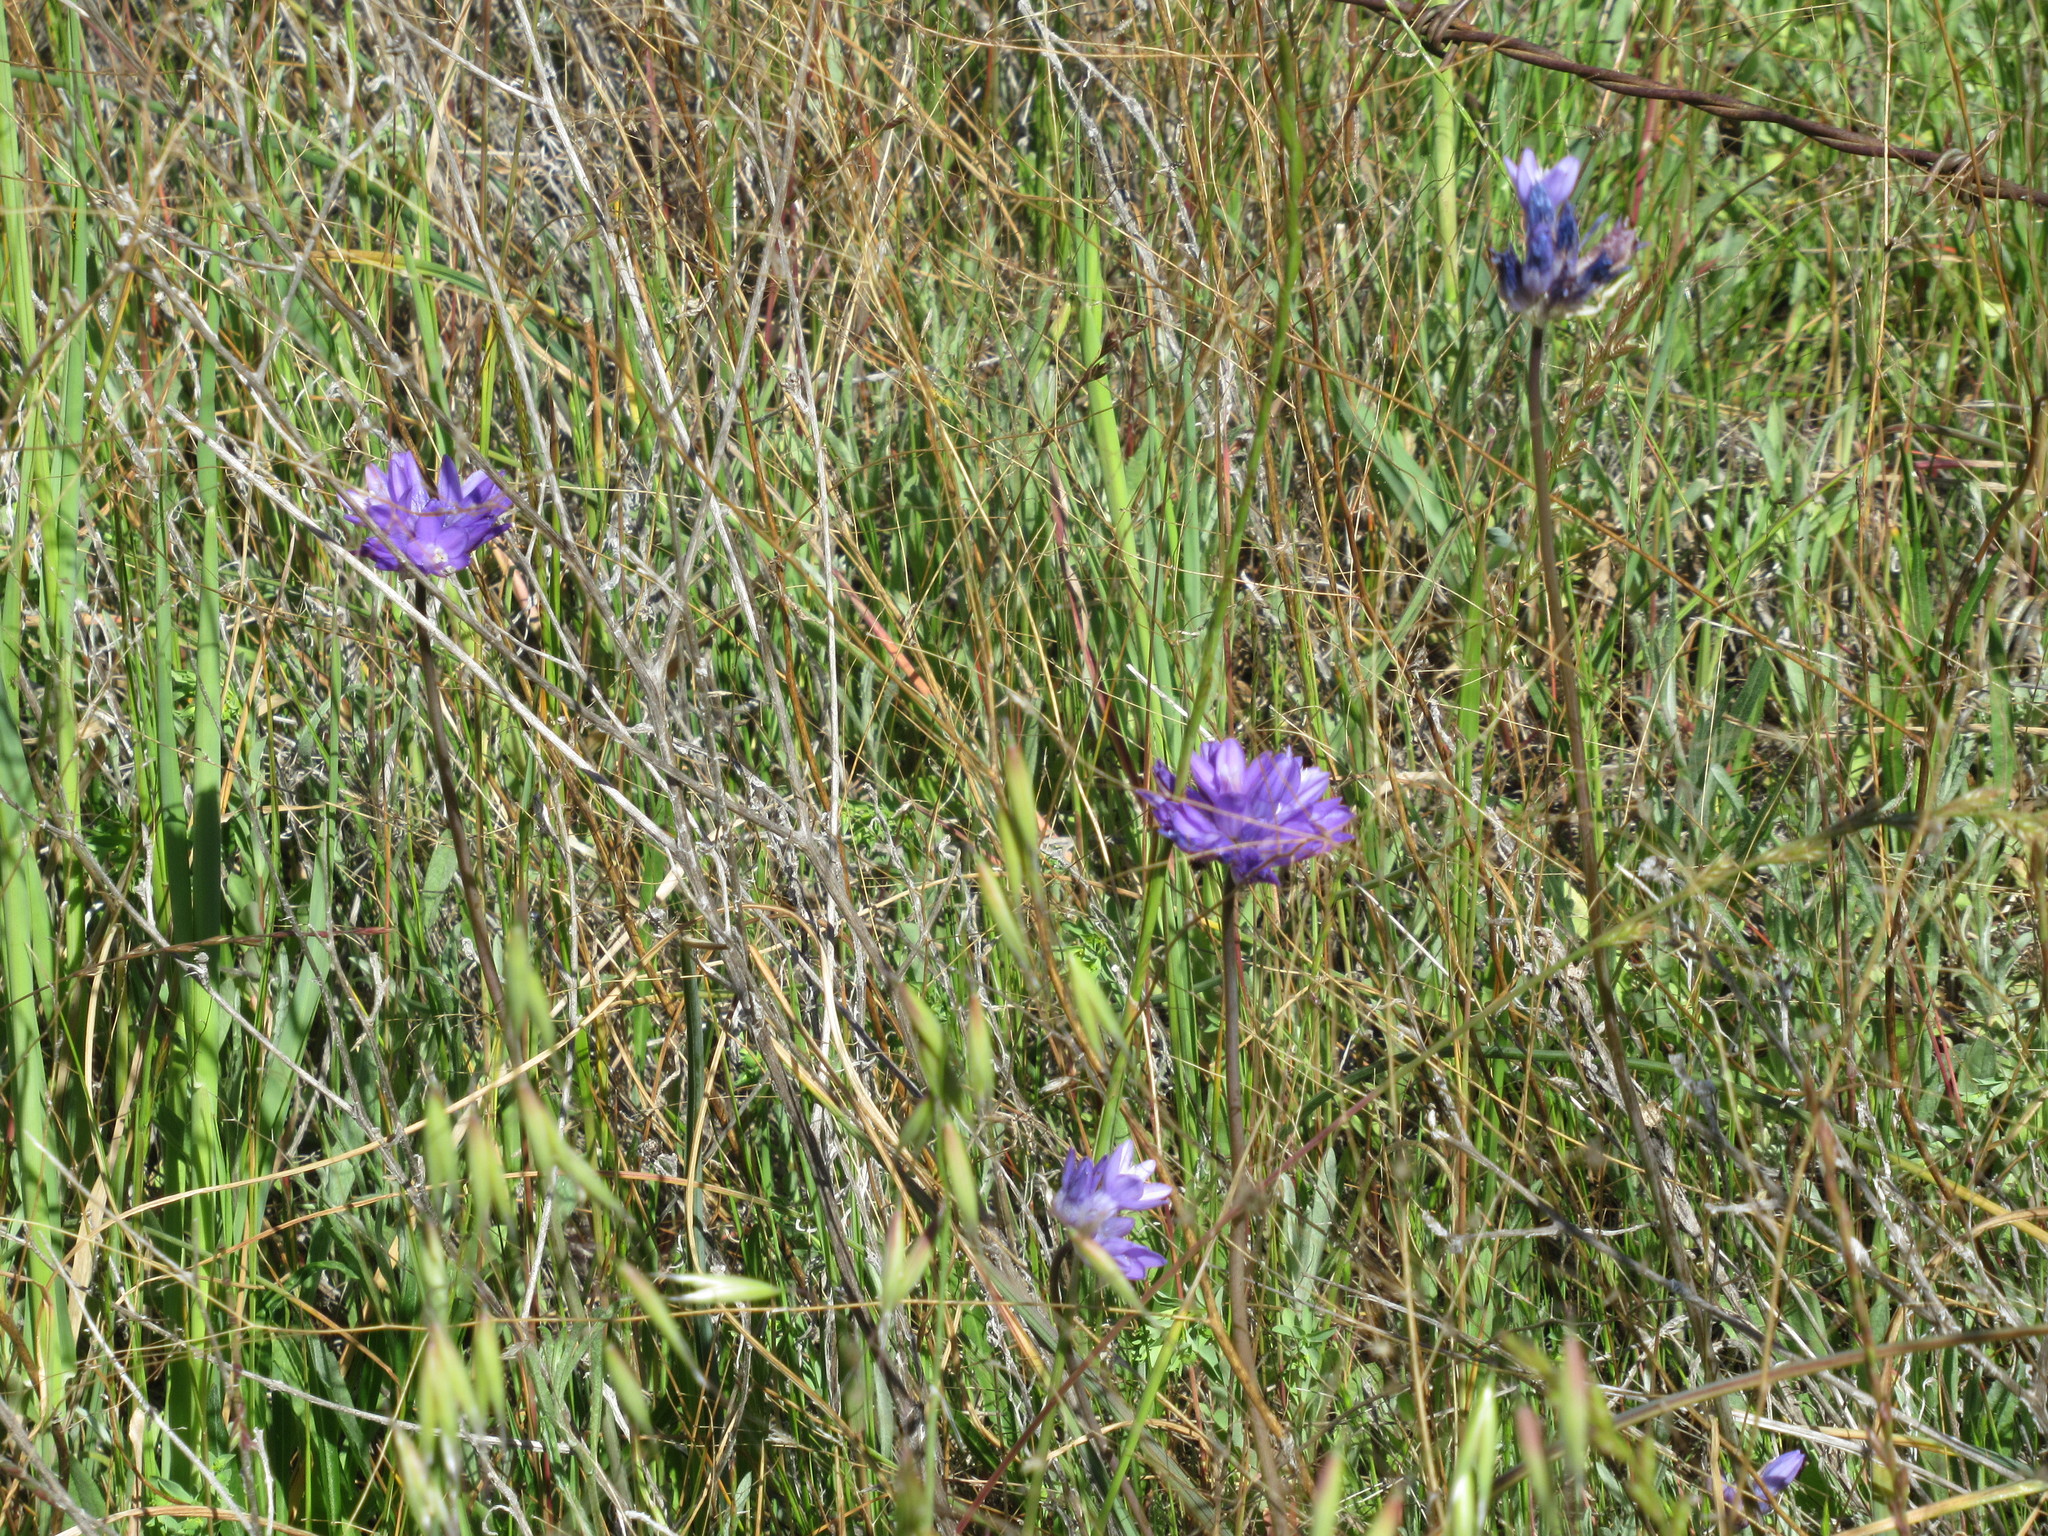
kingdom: Plantae
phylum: Tracheophyta
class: Liliopsida
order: Asparagales
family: Asparagaceae
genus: Dipterostemon
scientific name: Dipterostemon capitatus
